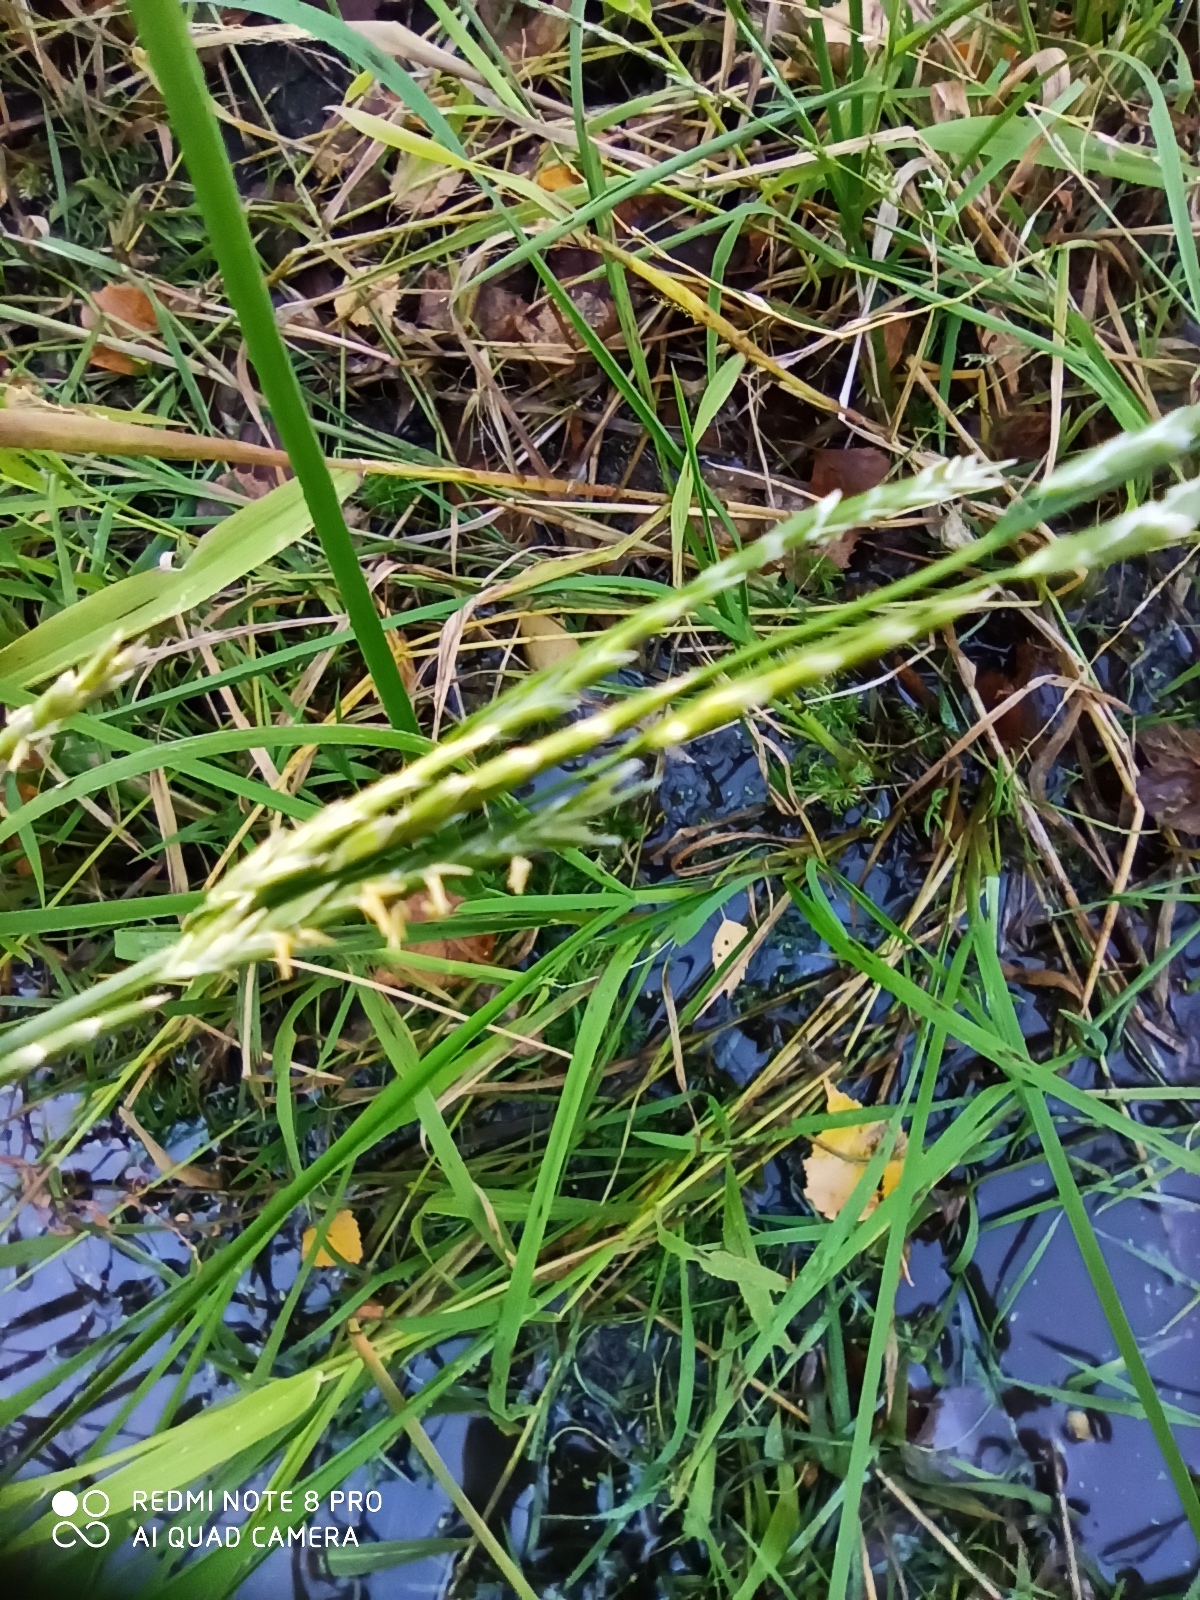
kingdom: Plantae
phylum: Tracheophyta
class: Liliopsida
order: Poales
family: Poaceae
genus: Glyceria
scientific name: Glyceria fluitans
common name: Floating sweet-grass
